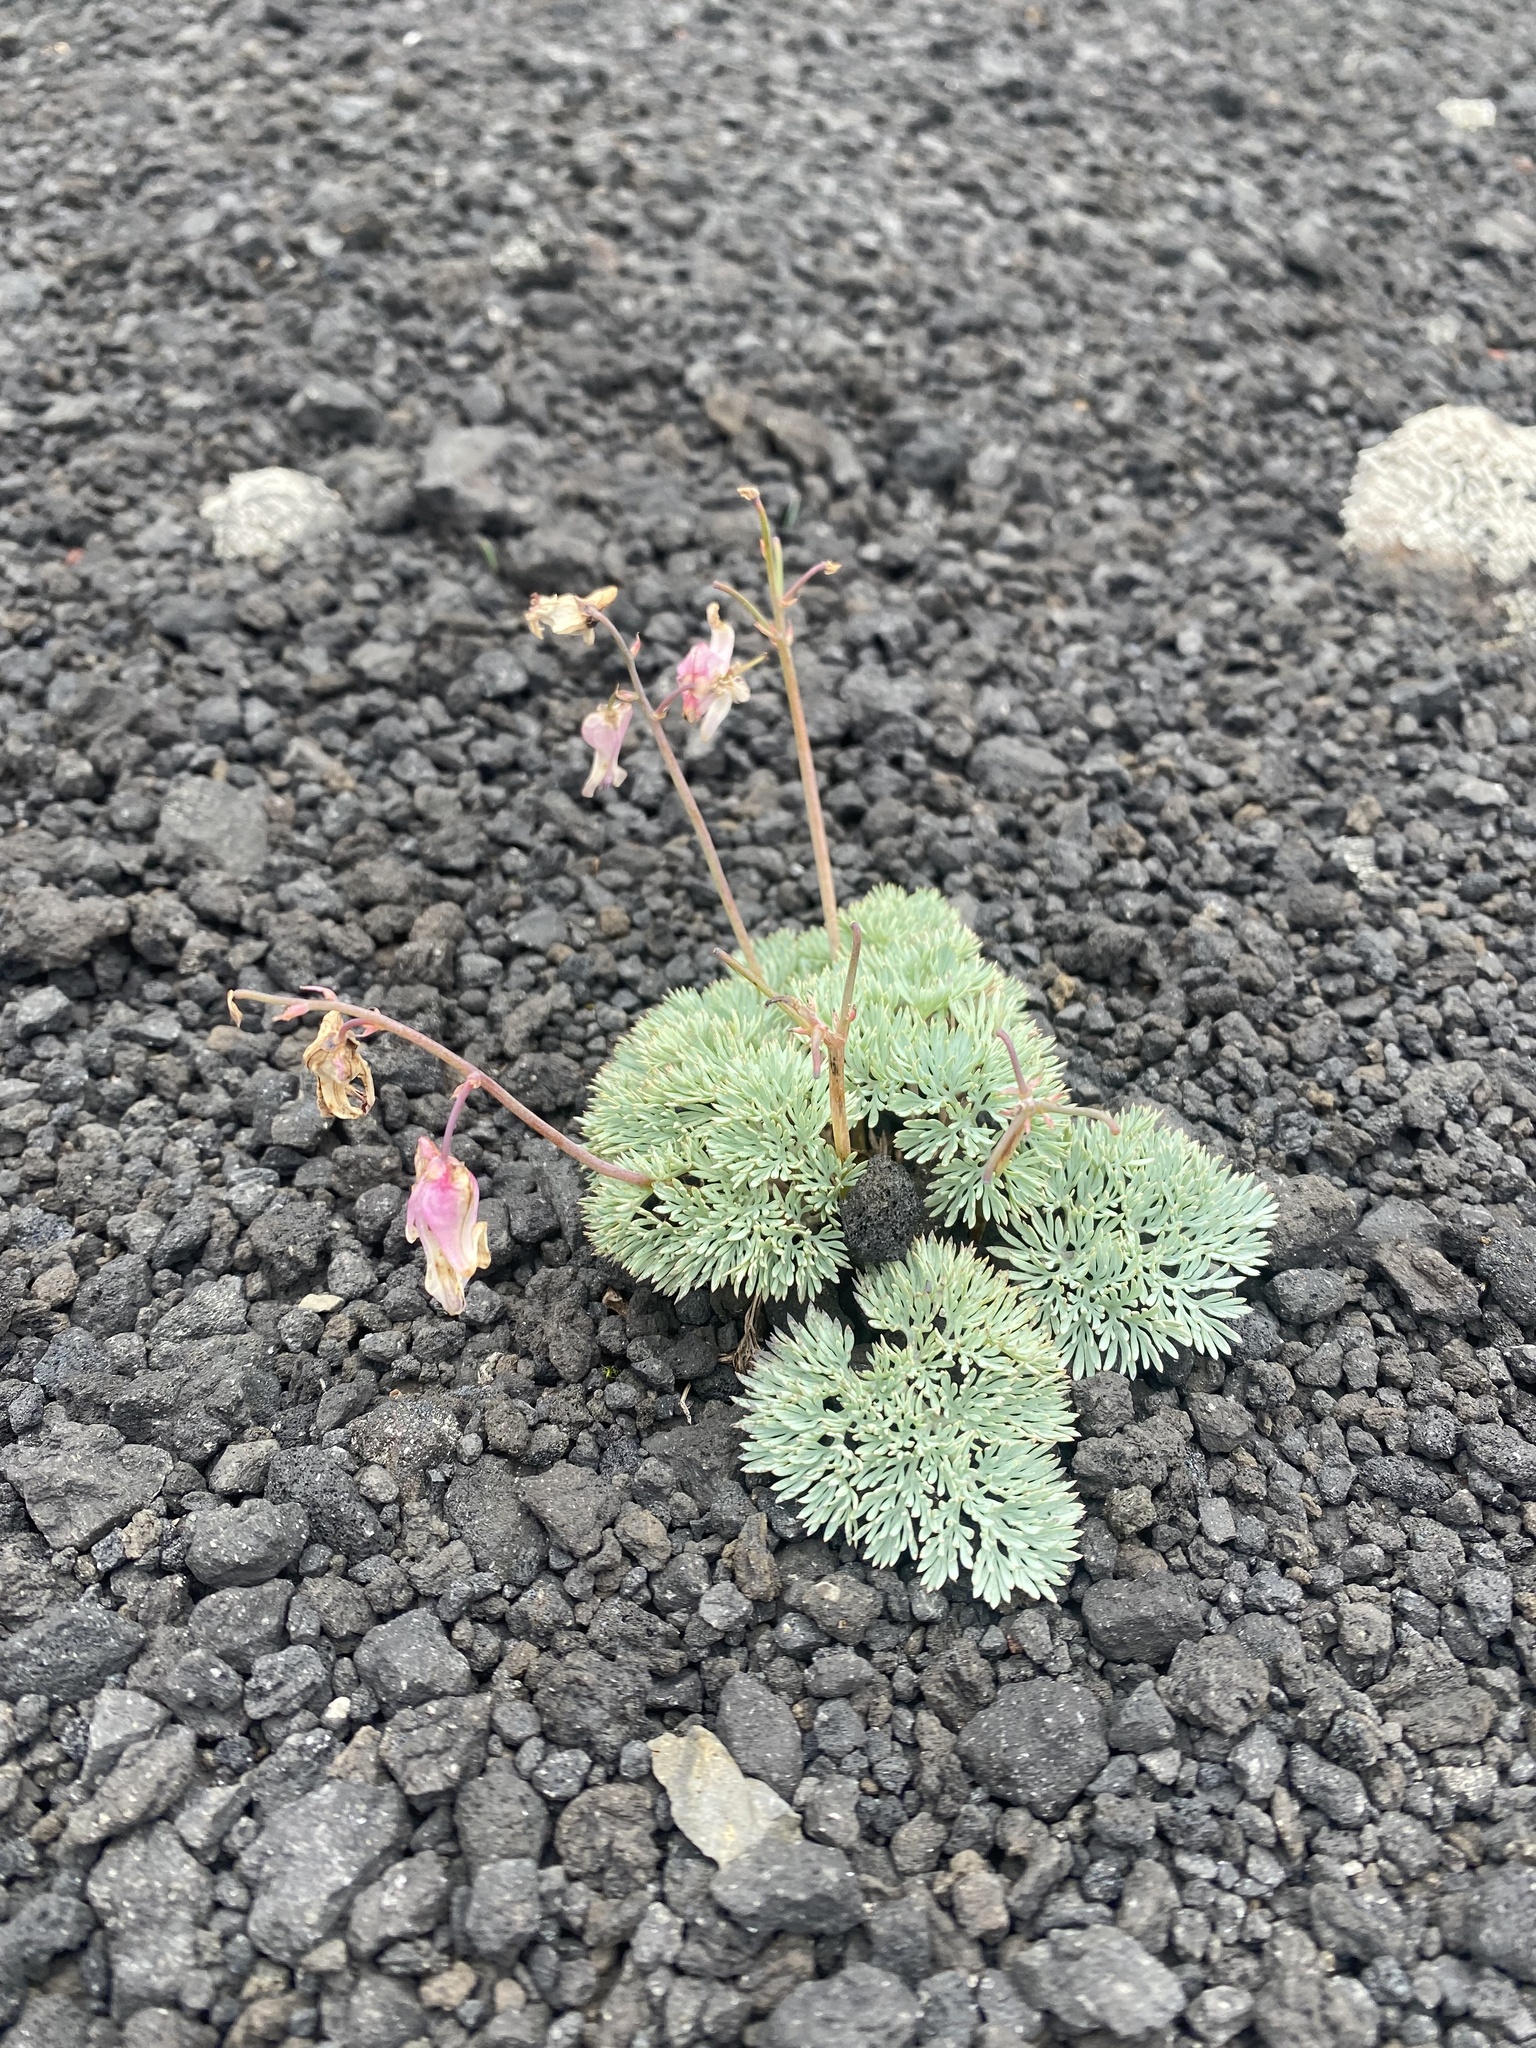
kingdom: Plantae
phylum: Tracheophyta
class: Magnoliopsida
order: Ranunculales
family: Papaveraceae
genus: Dicentra
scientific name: Dicentra peregrina
